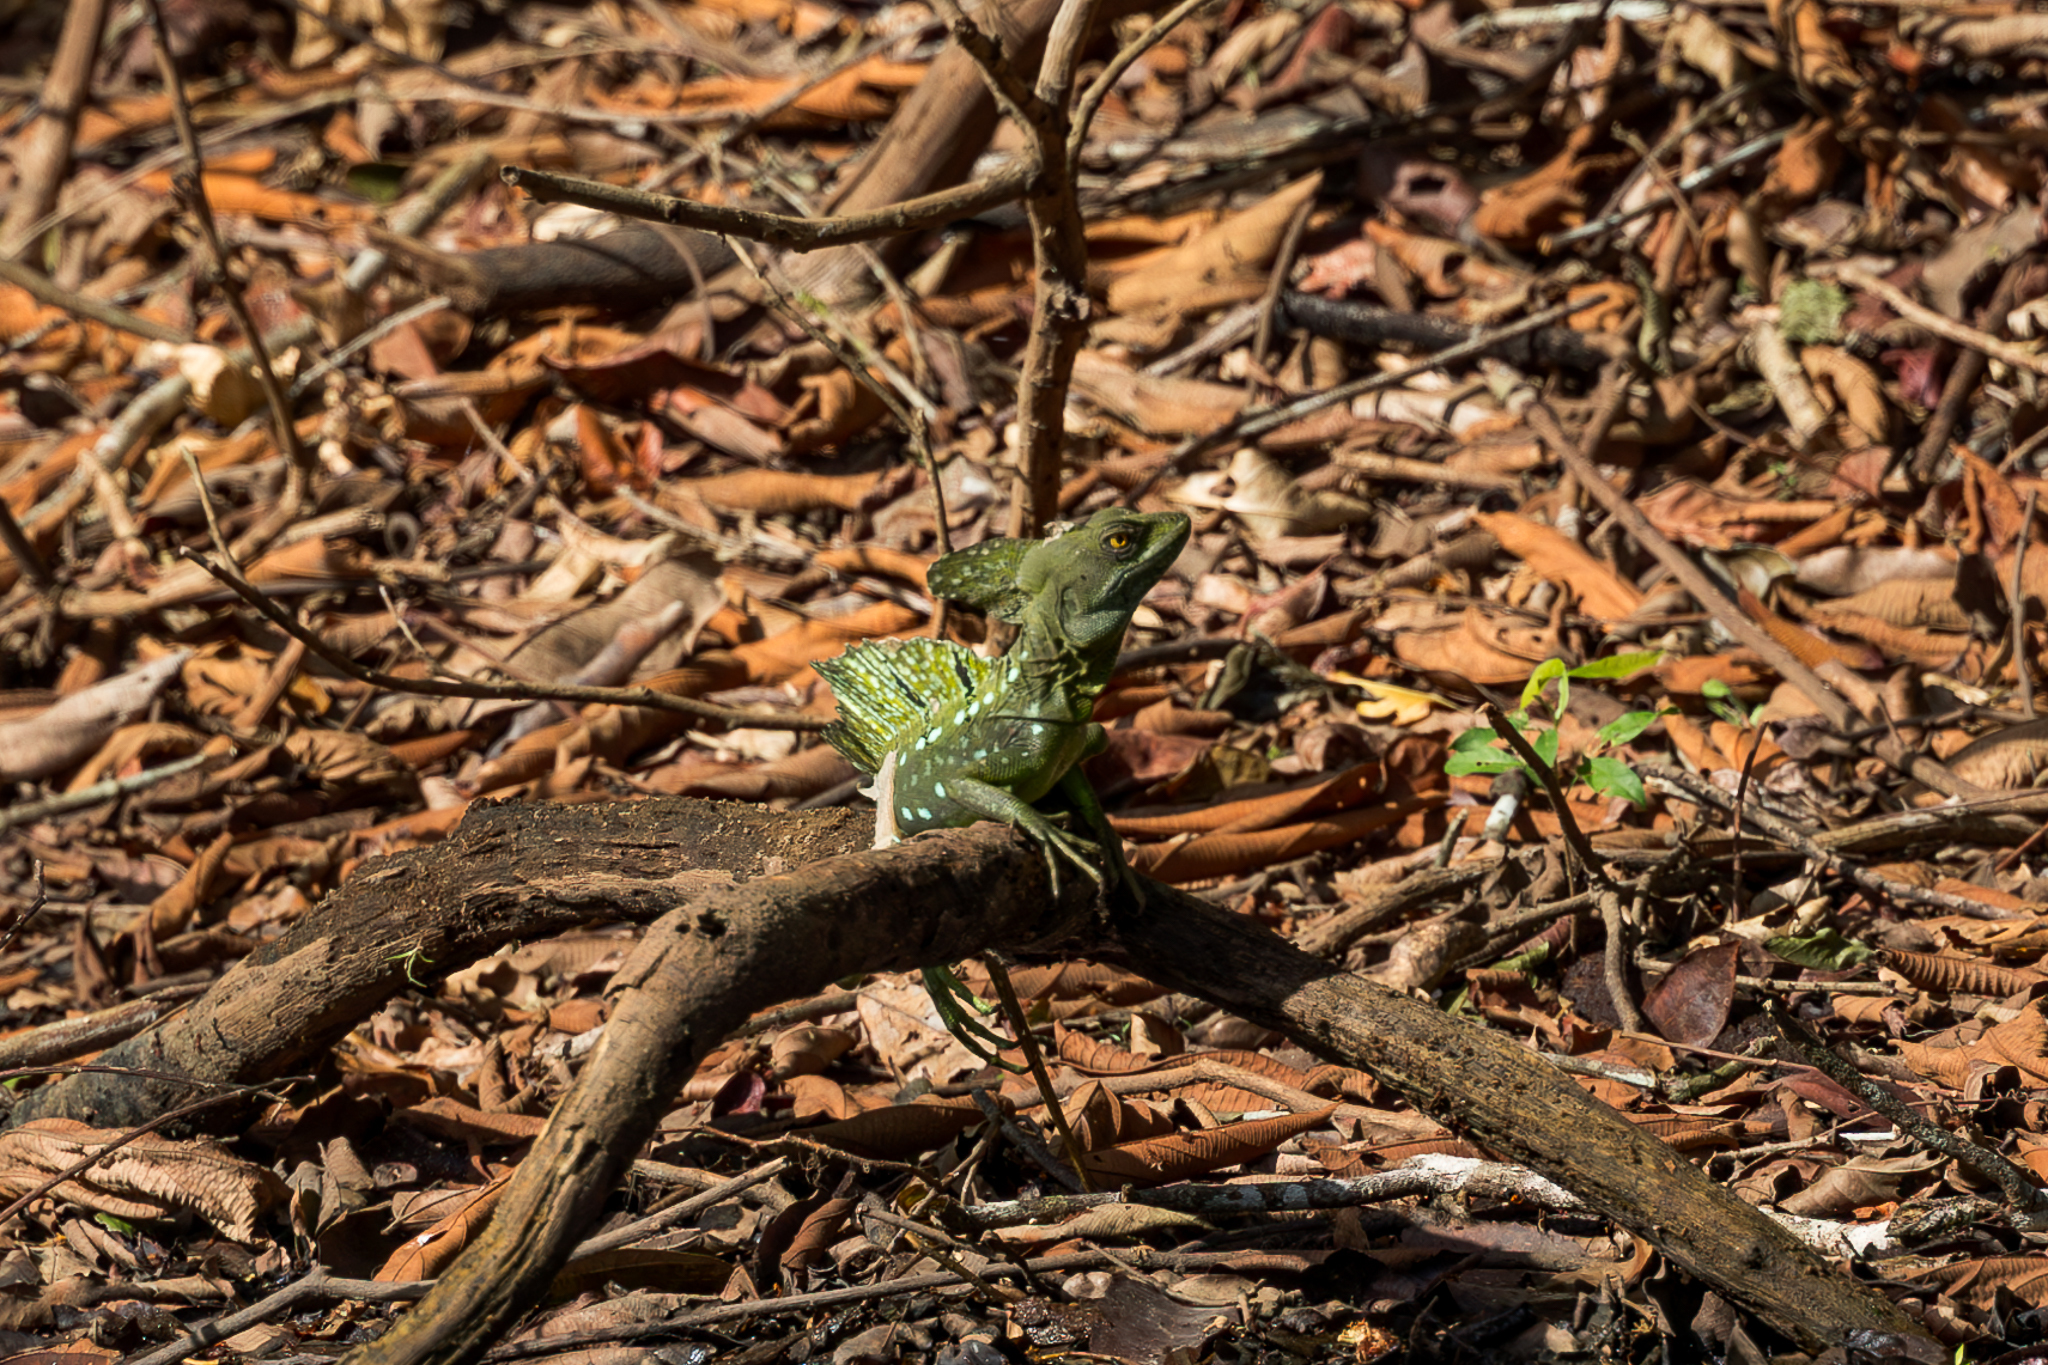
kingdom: Animalia
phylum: Chordata
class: Squamata
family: Corytophanidae
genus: Basiliscus
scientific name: Basiliscus plumifrons
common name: Green basilisk
